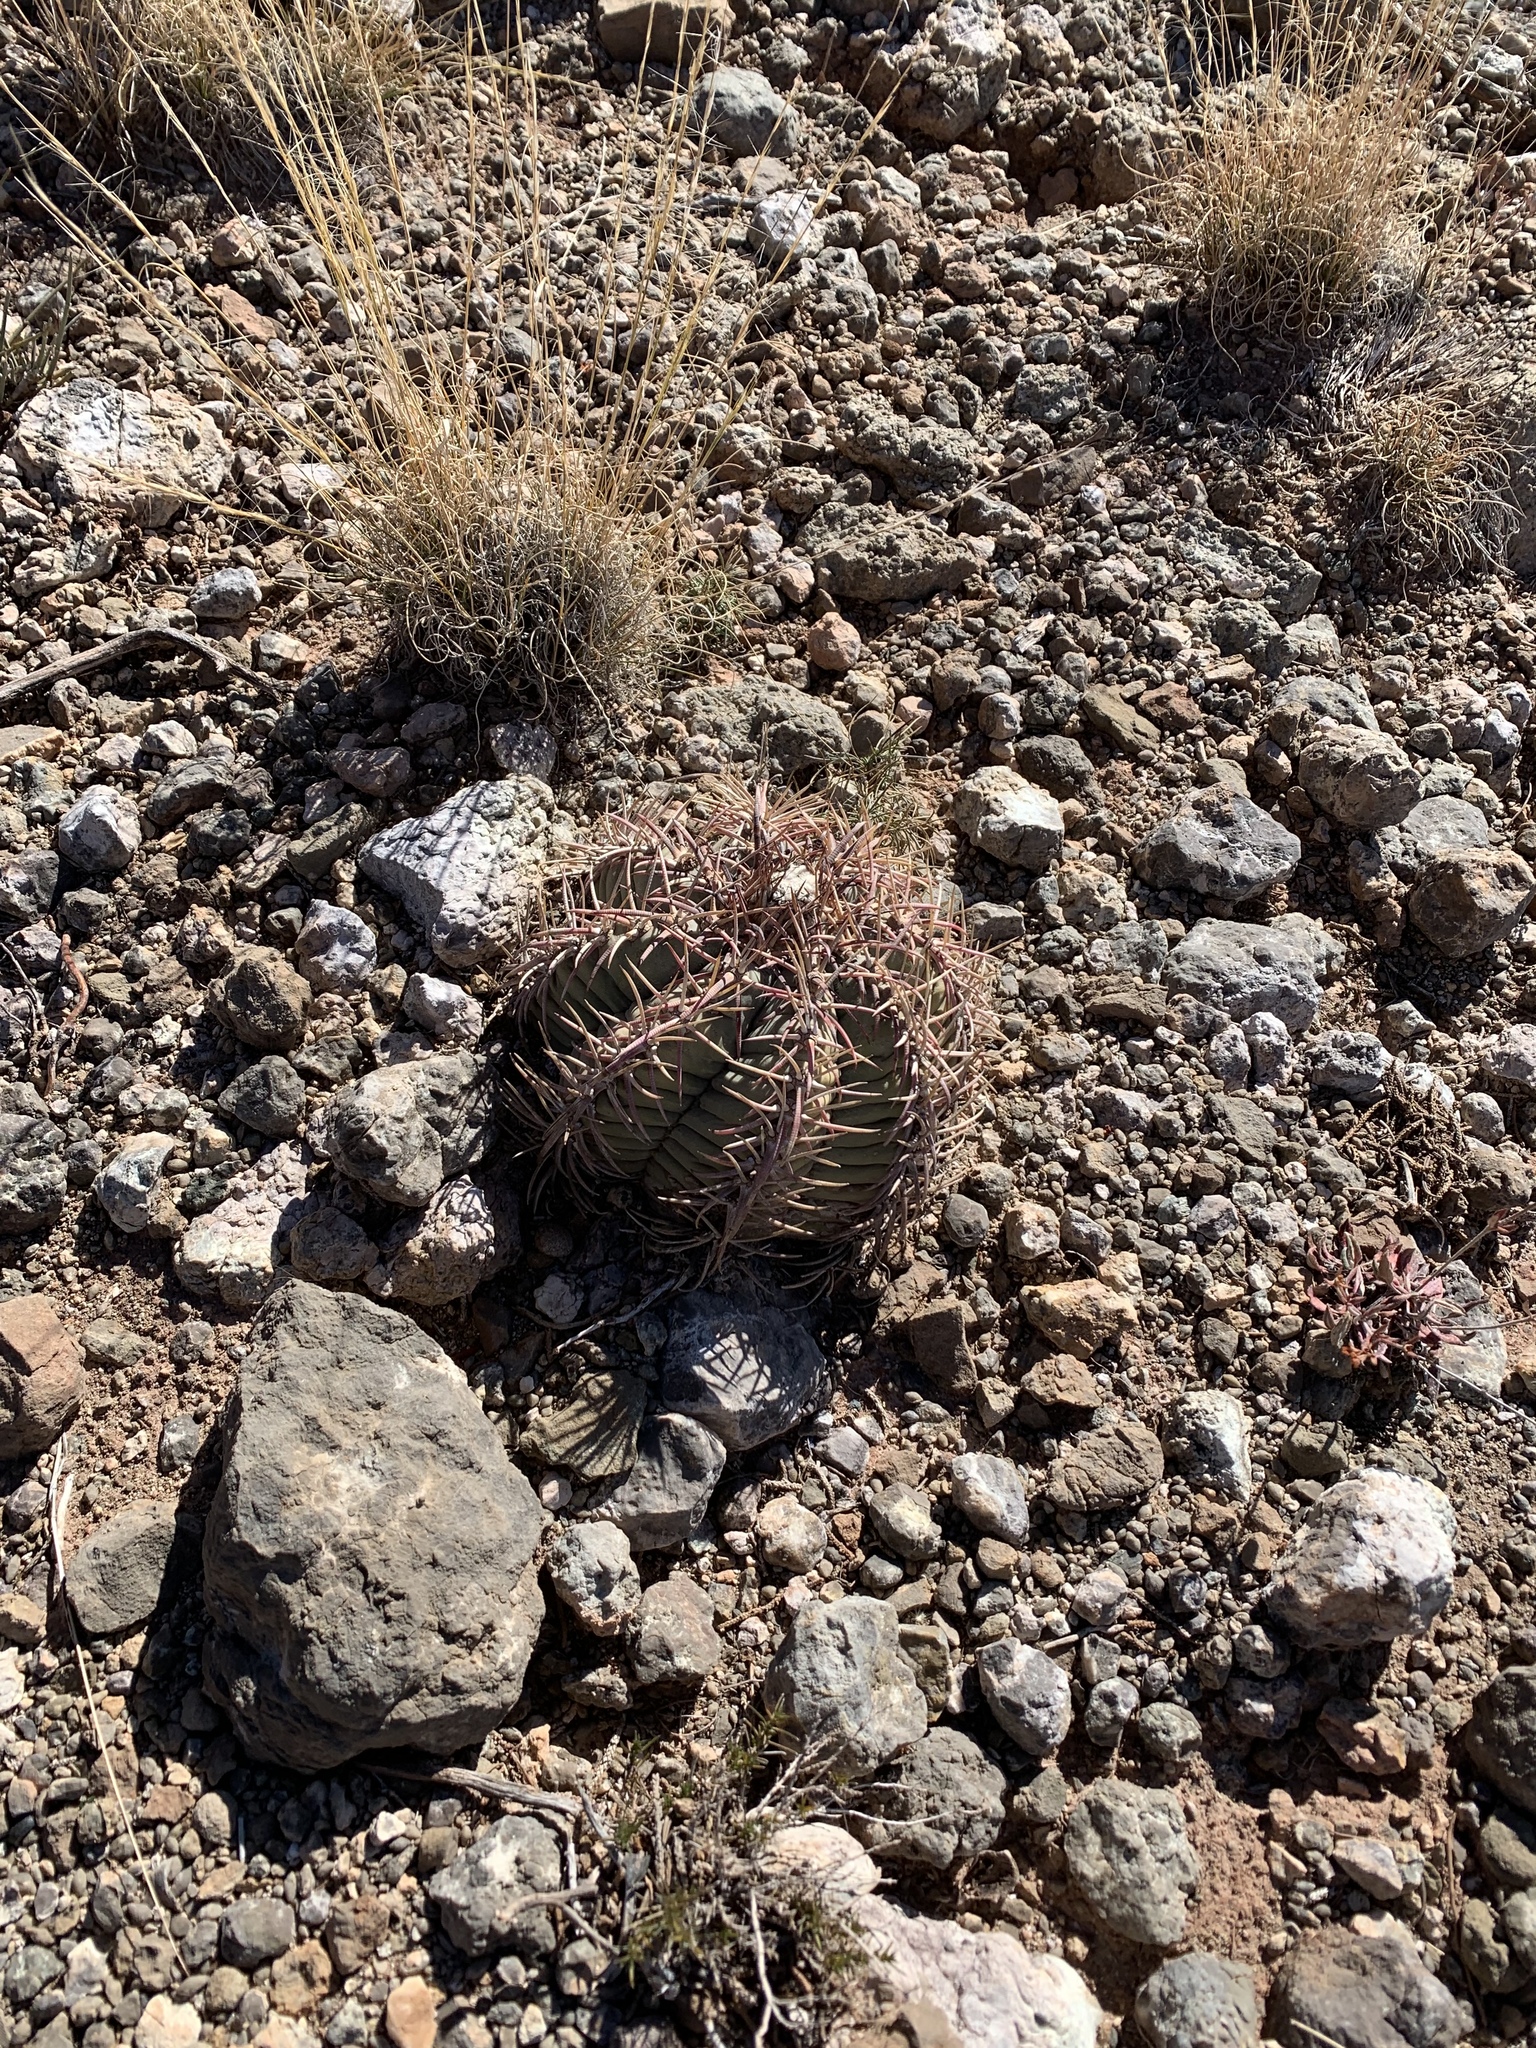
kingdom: Plantae
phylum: Tracheophyta
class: Magnoliopsida
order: Caryophyllales
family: Cactaceae
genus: Echinocactus
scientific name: Echinocactus horizonthalonius
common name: Devilshead
